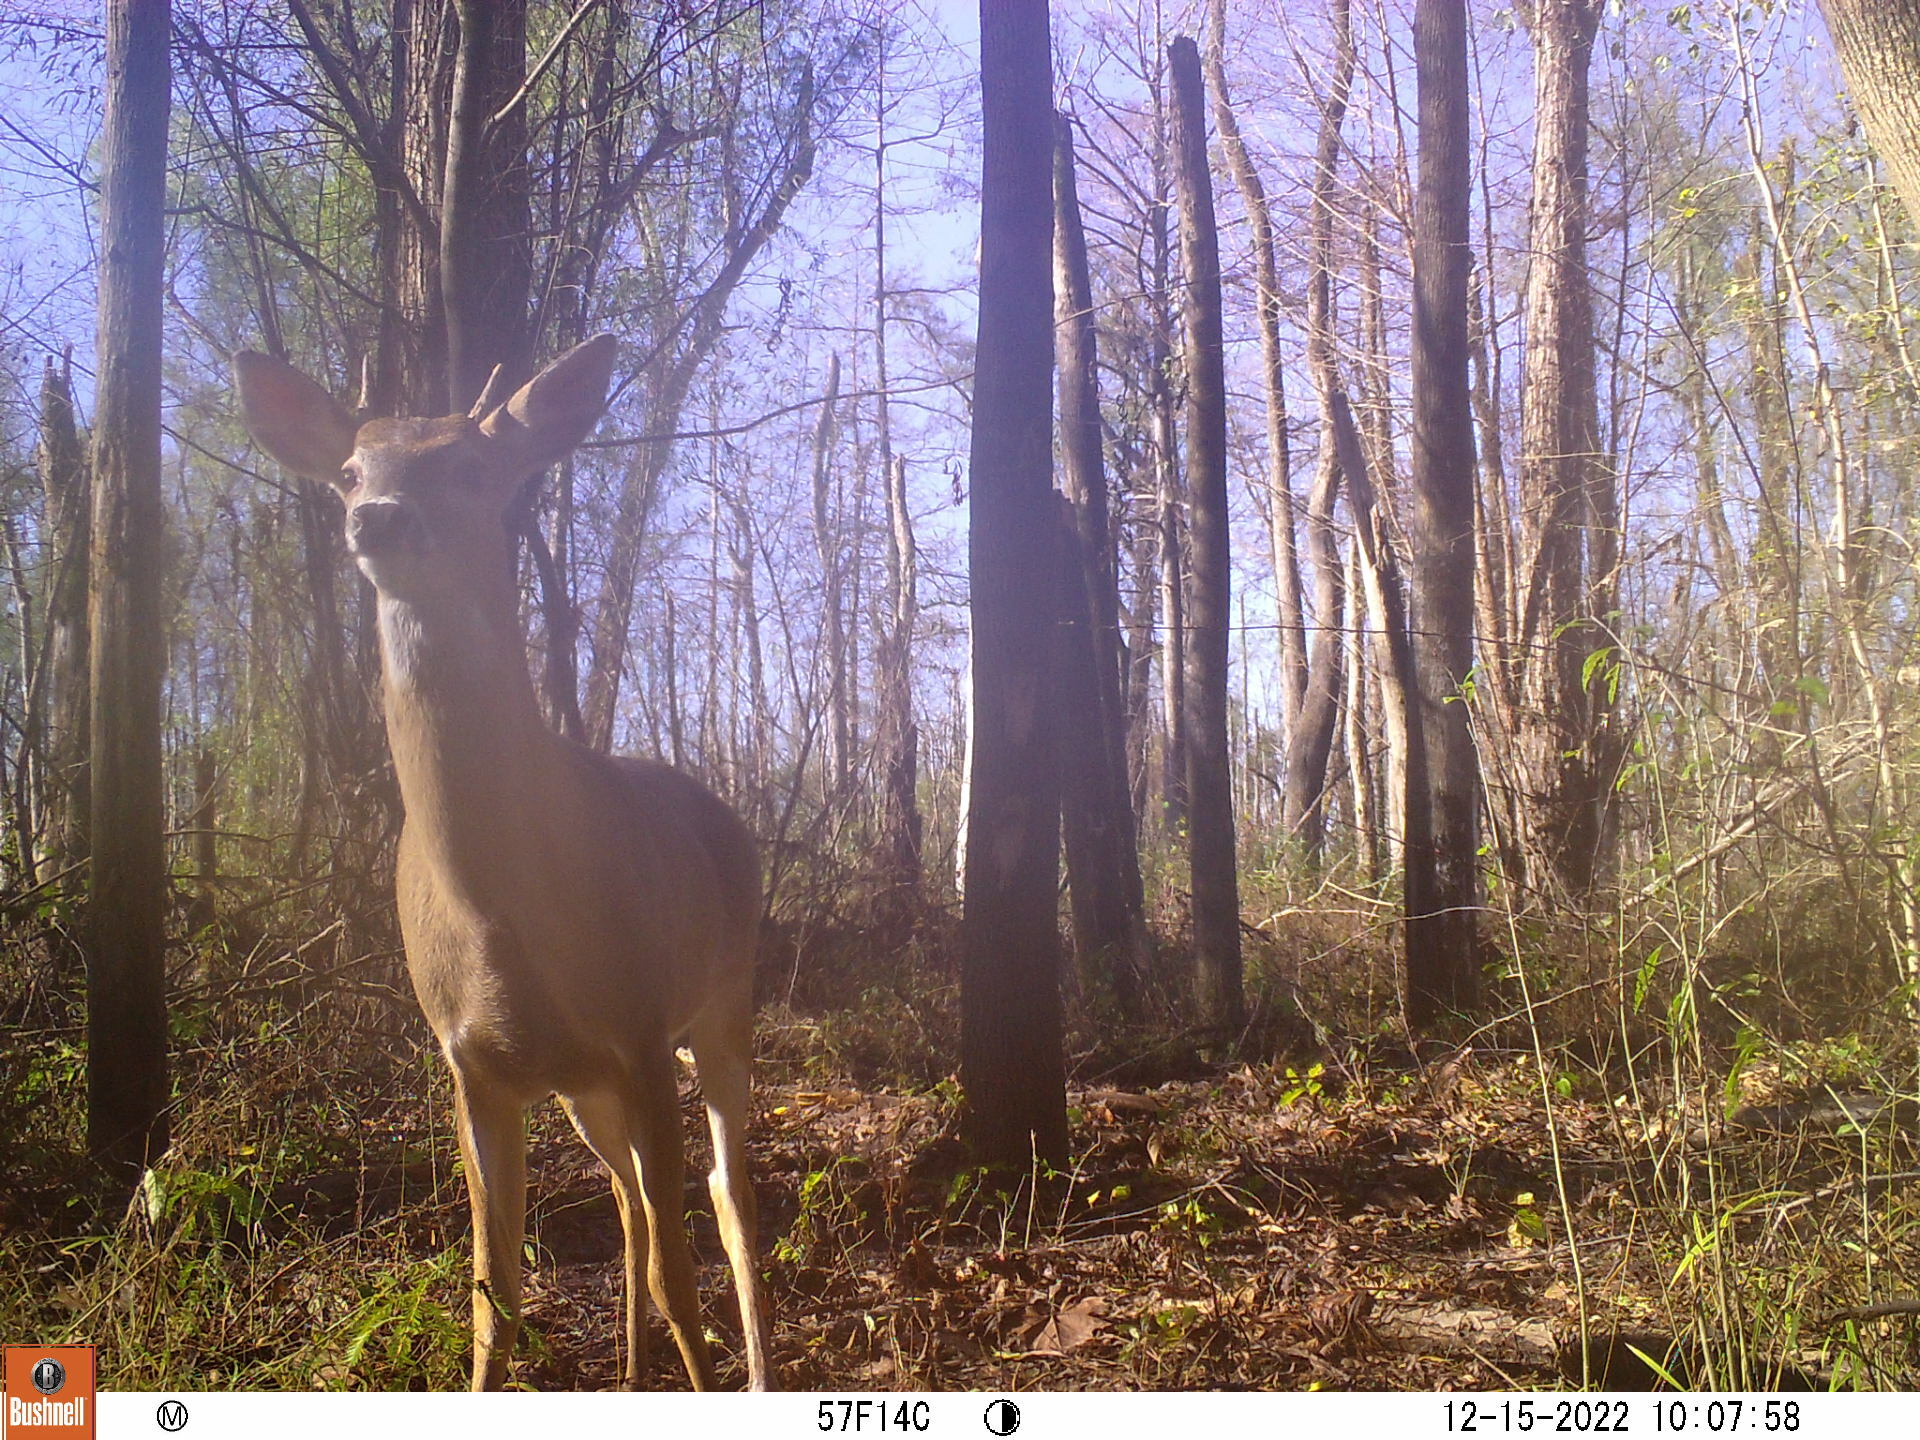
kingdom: Animalia
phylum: Chordata
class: Mammalia
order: Artiodactyla
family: Cervidae
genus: Odocoileus
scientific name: Odocoileus virginianus
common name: White-tailed deer
